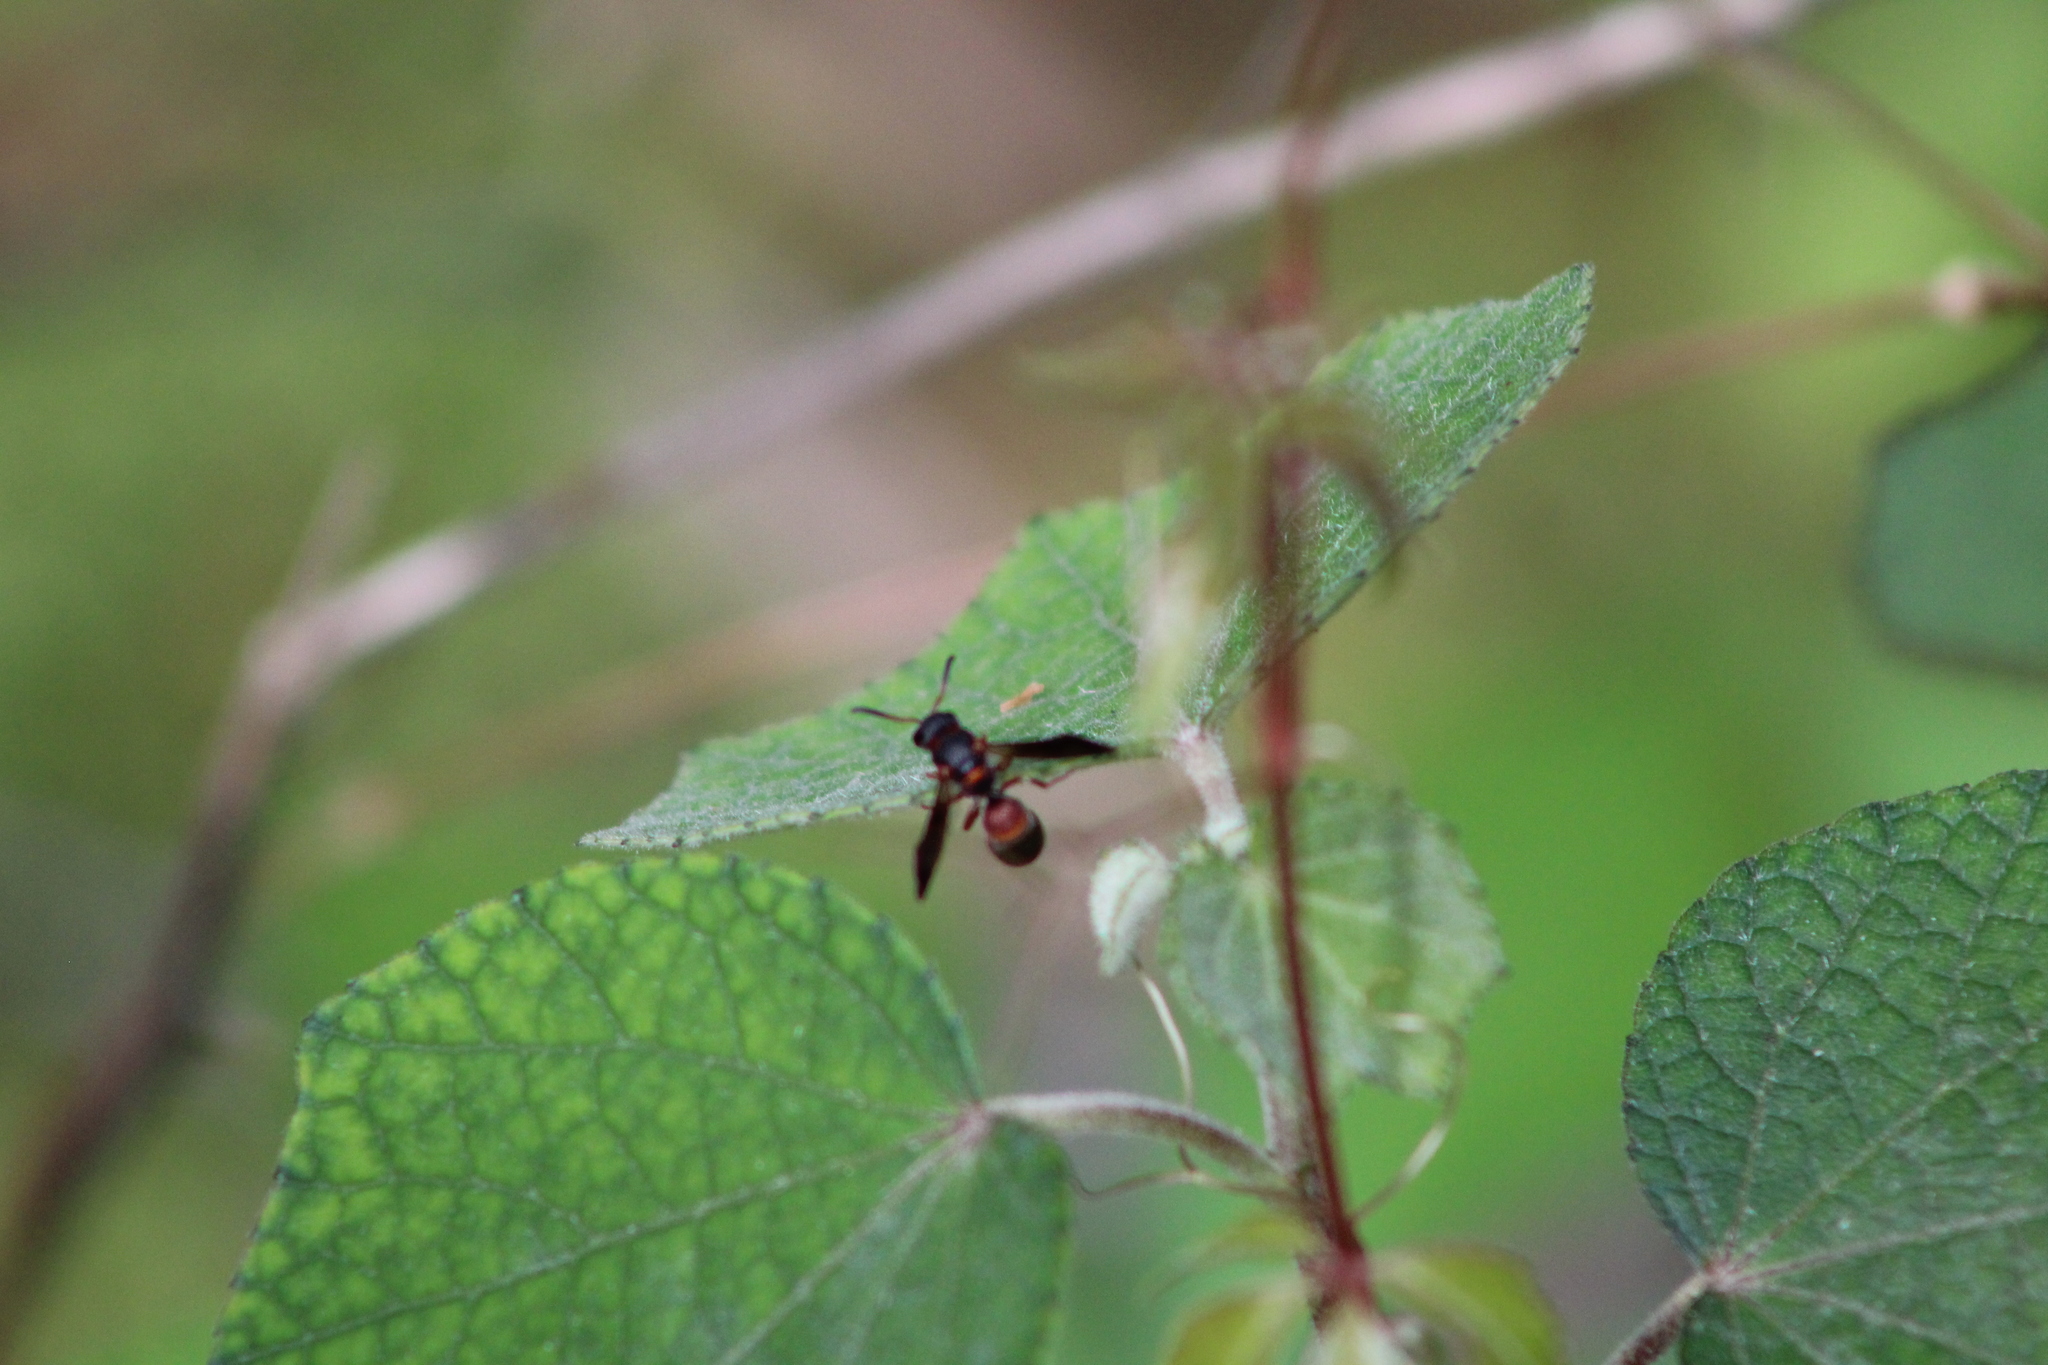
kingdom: Animalia
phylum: Arthropoda
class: Insecta
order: Hymenoptera
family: Eumenidae
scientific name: Eumenidae
